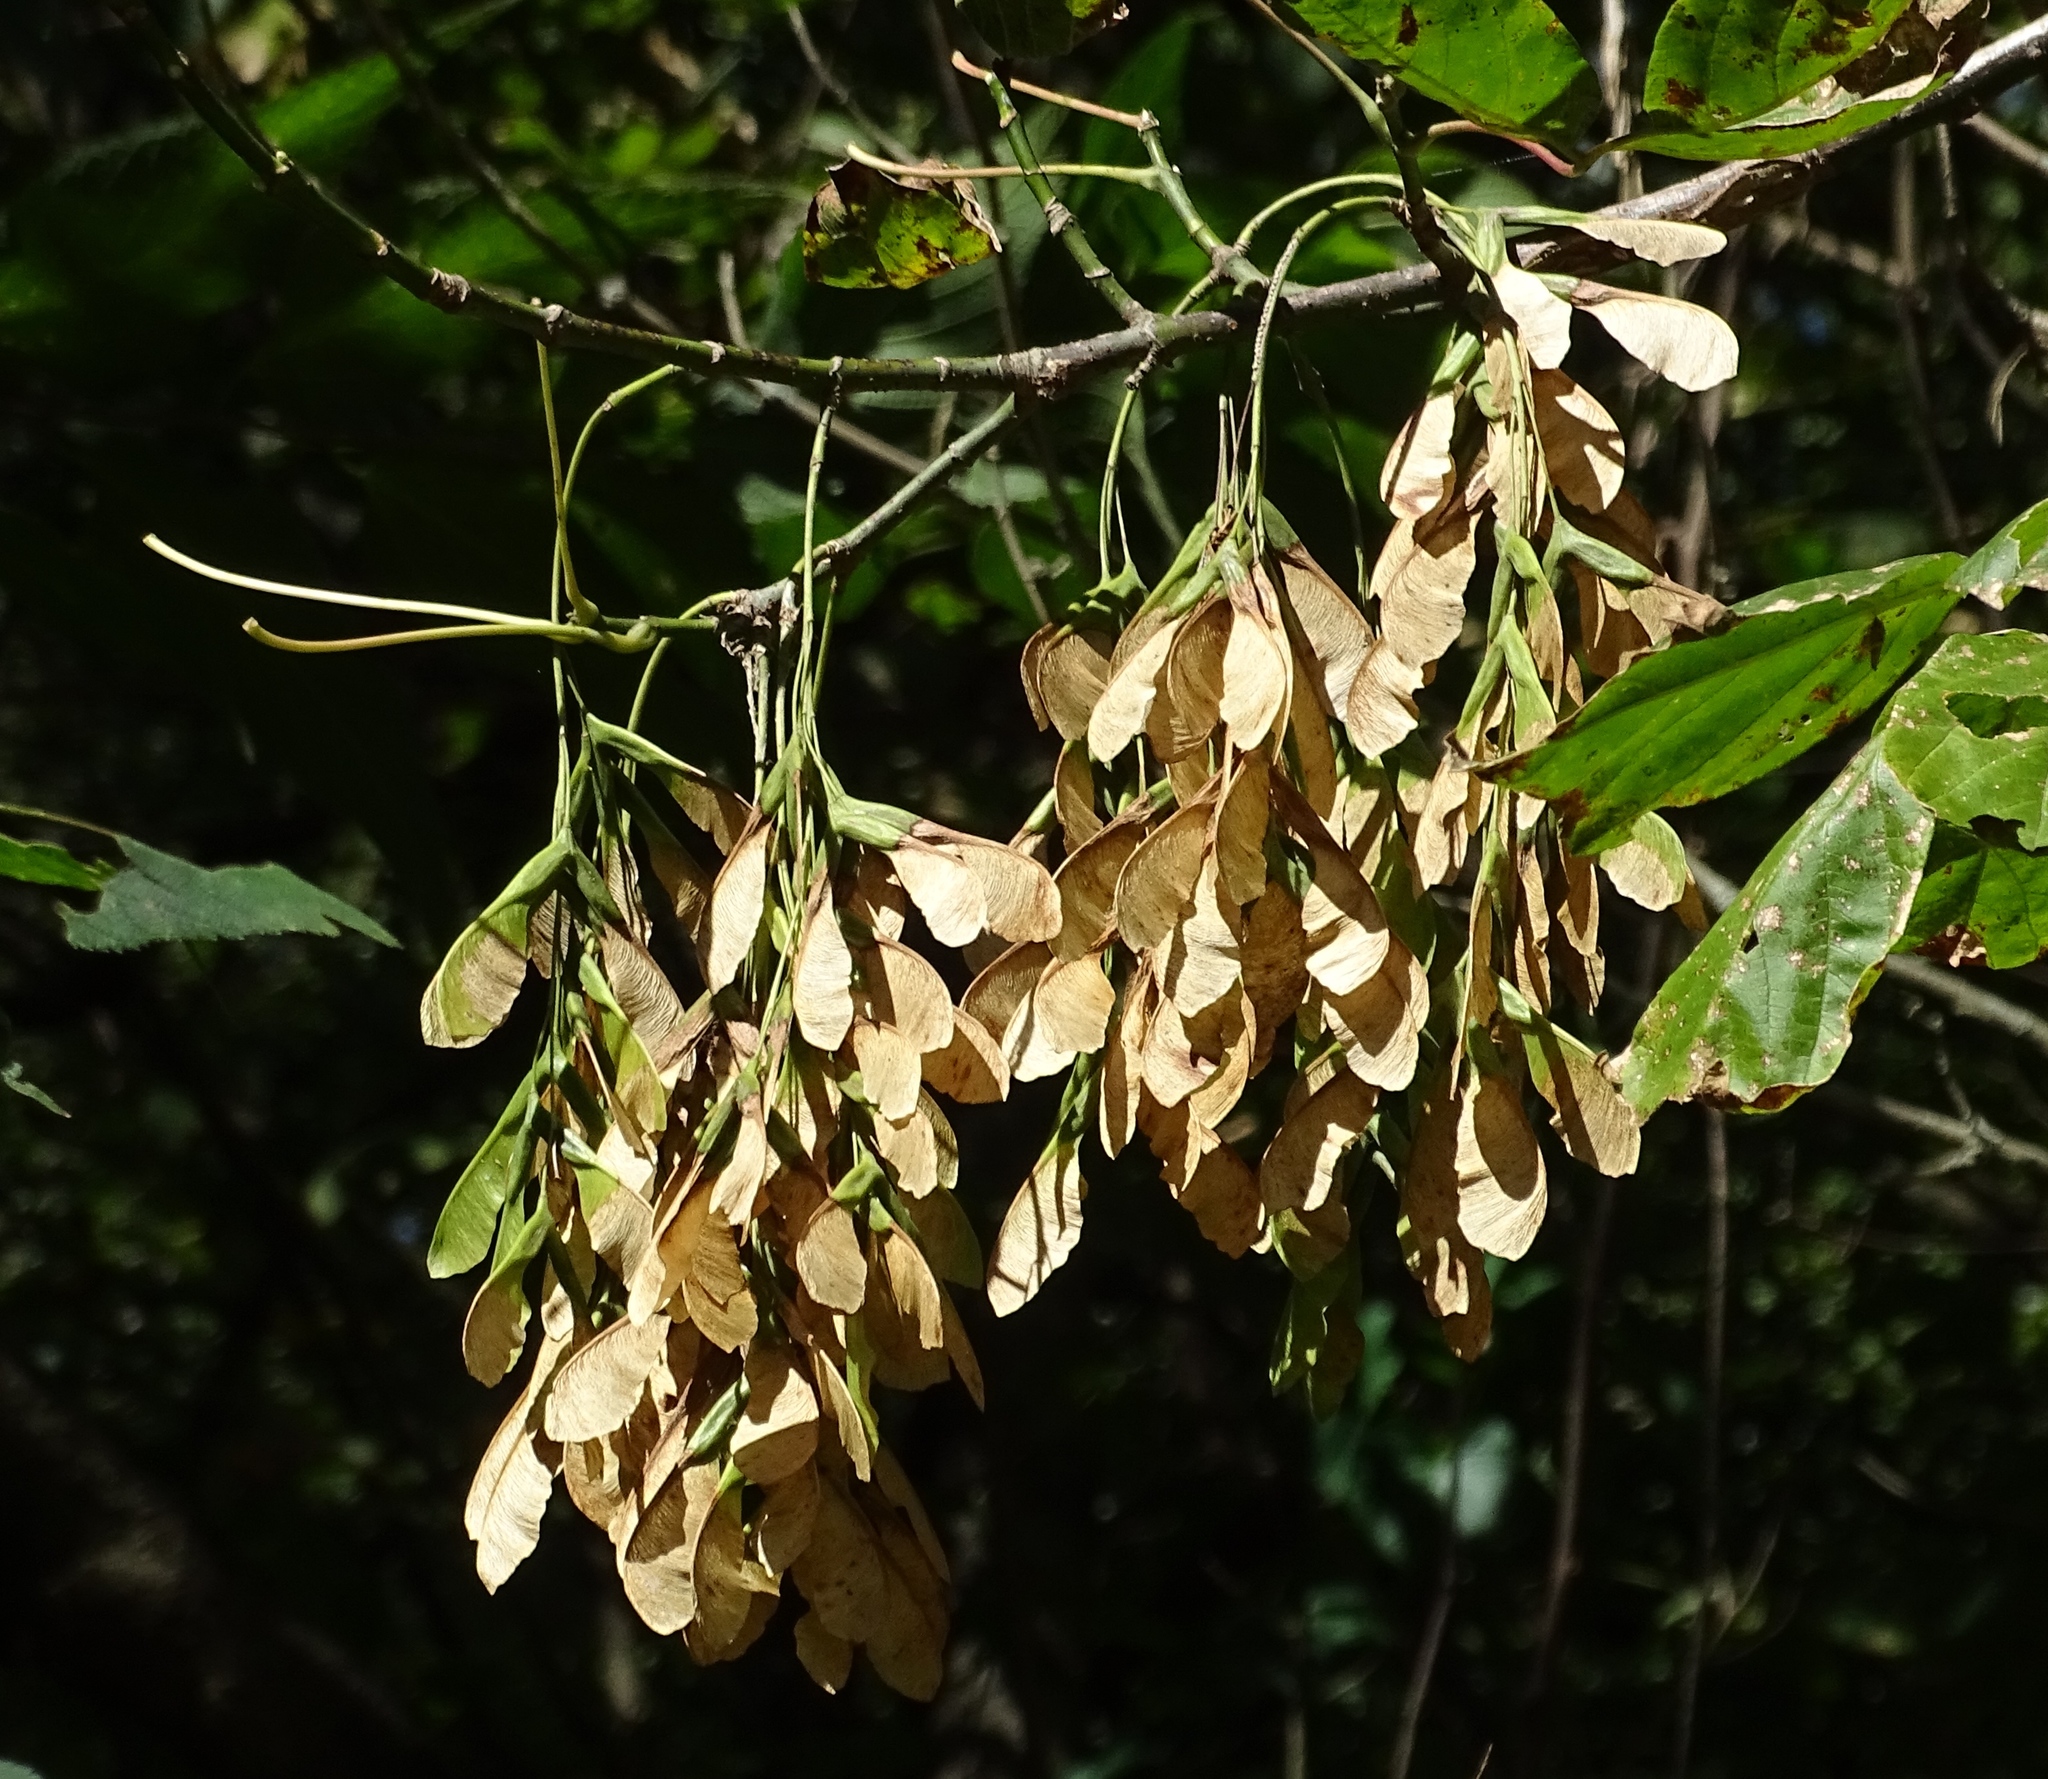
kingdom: Plantae
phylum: Tracheophyta
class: Magnoliopsida
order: Sapindales
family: Sapindaceae
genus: Acer
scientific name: Acer negundo
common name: Ashleaf maple
